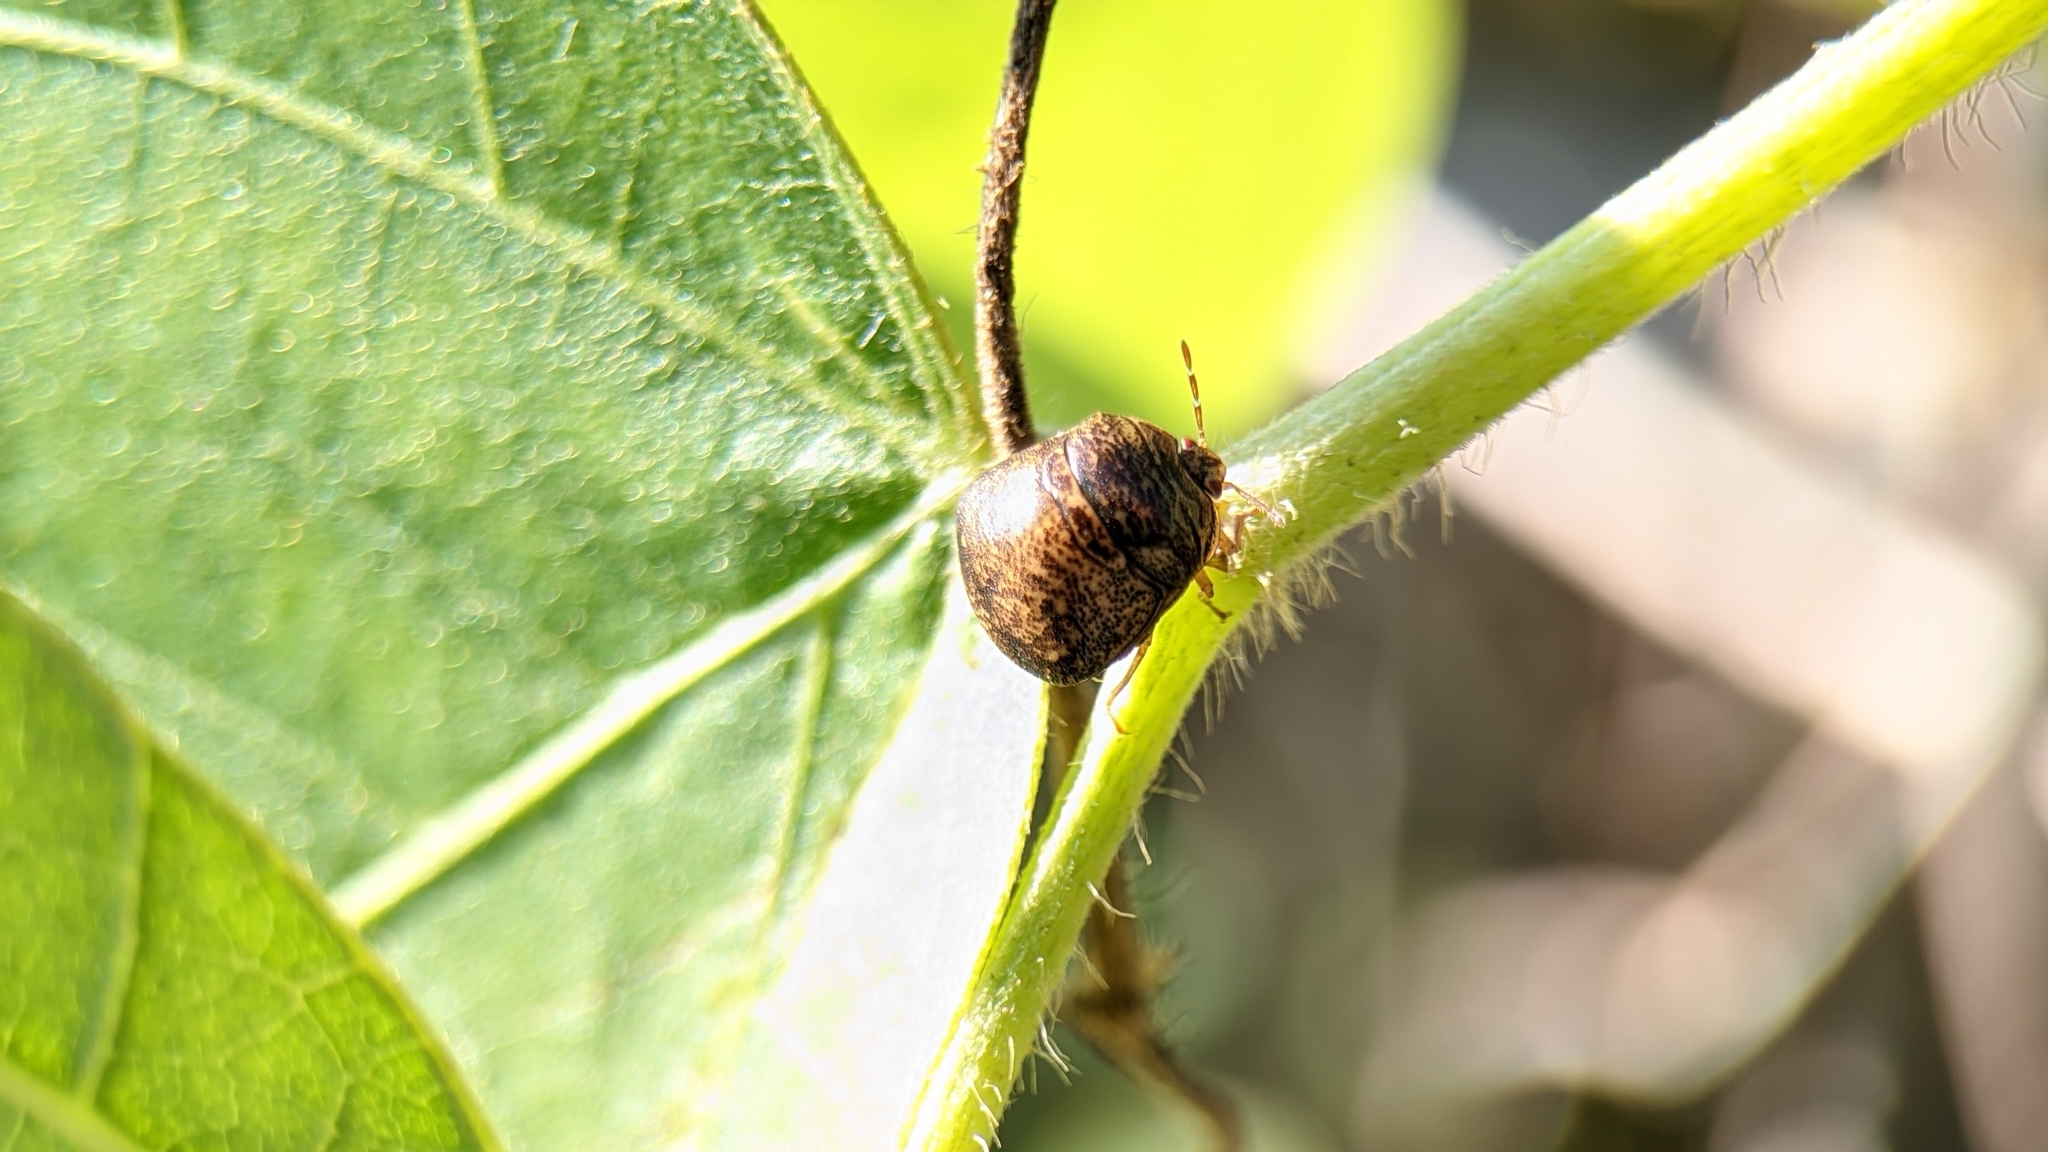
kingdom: Animalia
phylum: Arthropoda
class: Insecta
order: Hemiptera
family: Plataspidae
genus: Megacopta
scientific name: Megacopta cribraria
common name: Bean plataspid
